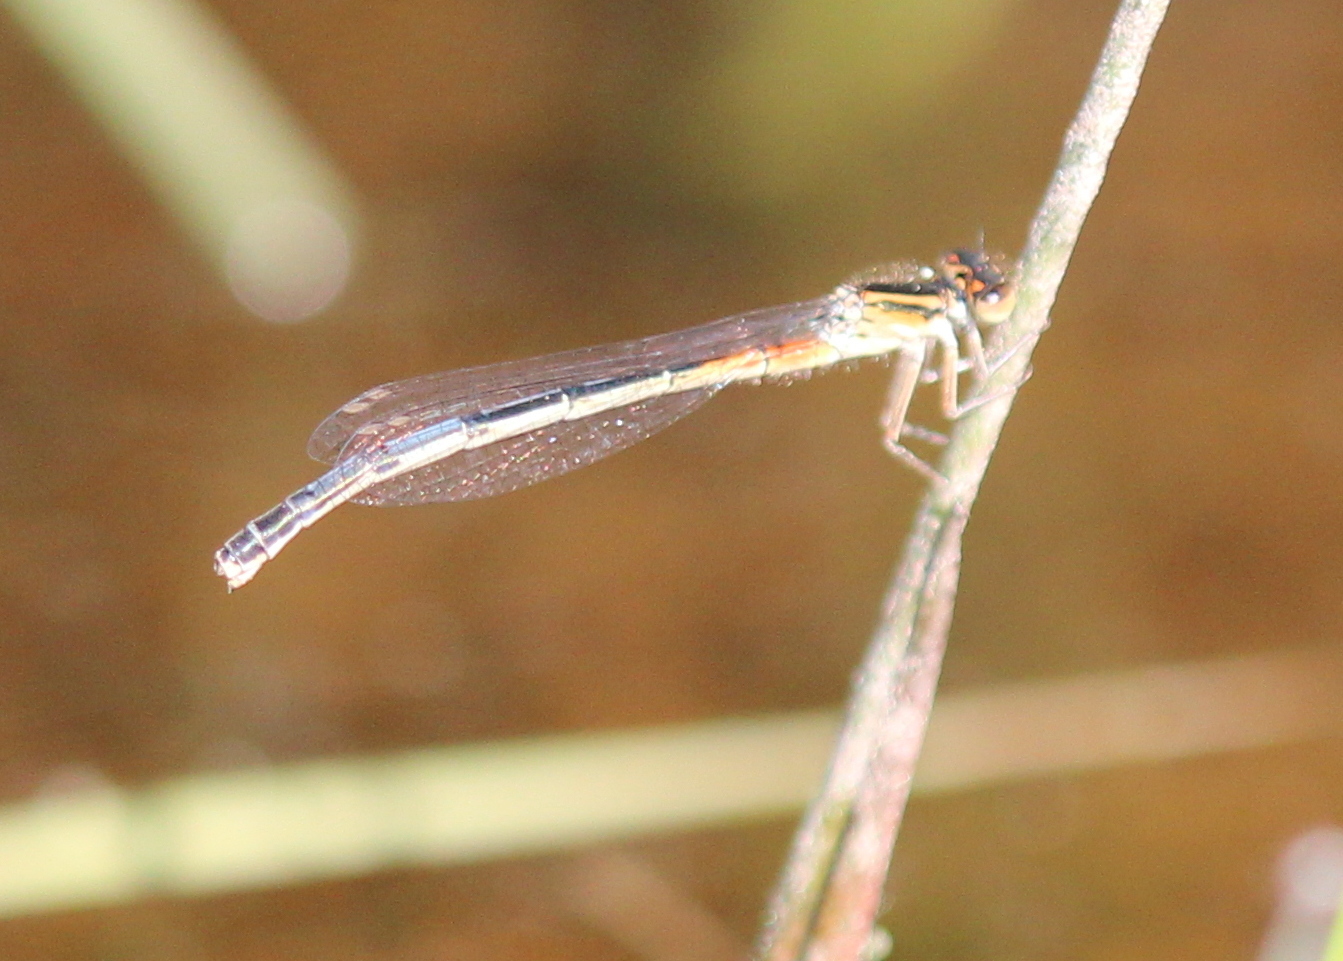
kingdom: Animalia
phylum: Arthropoda
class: Insecta
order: Odonata
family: Coenagrionidae
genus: Ischnura
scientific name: Ischnura verticalis
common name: Eastern forktail
